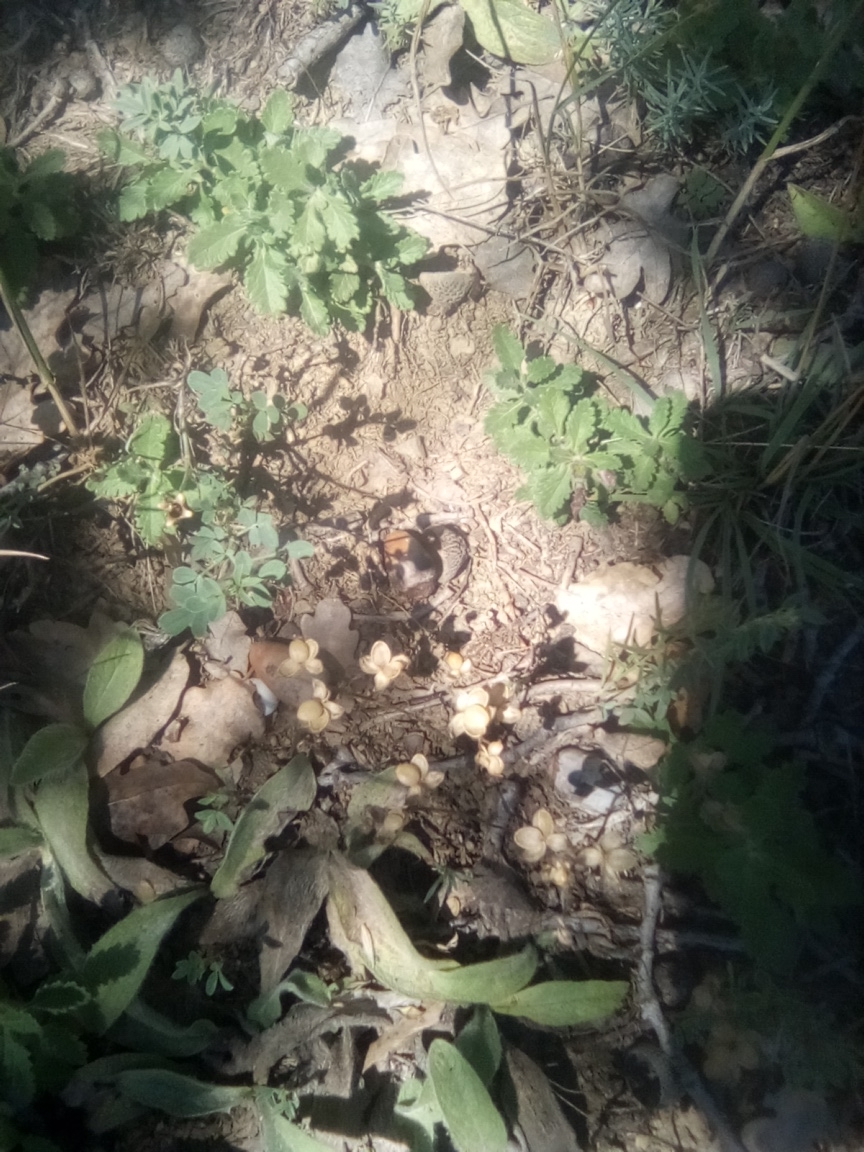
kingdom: Plantae
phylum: Tracheophyta
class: Magnoliopsida
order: Lamiales
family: Lamiaceae
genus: Teucrium
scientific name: Teucrium chamaedrys
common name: Wall germander
